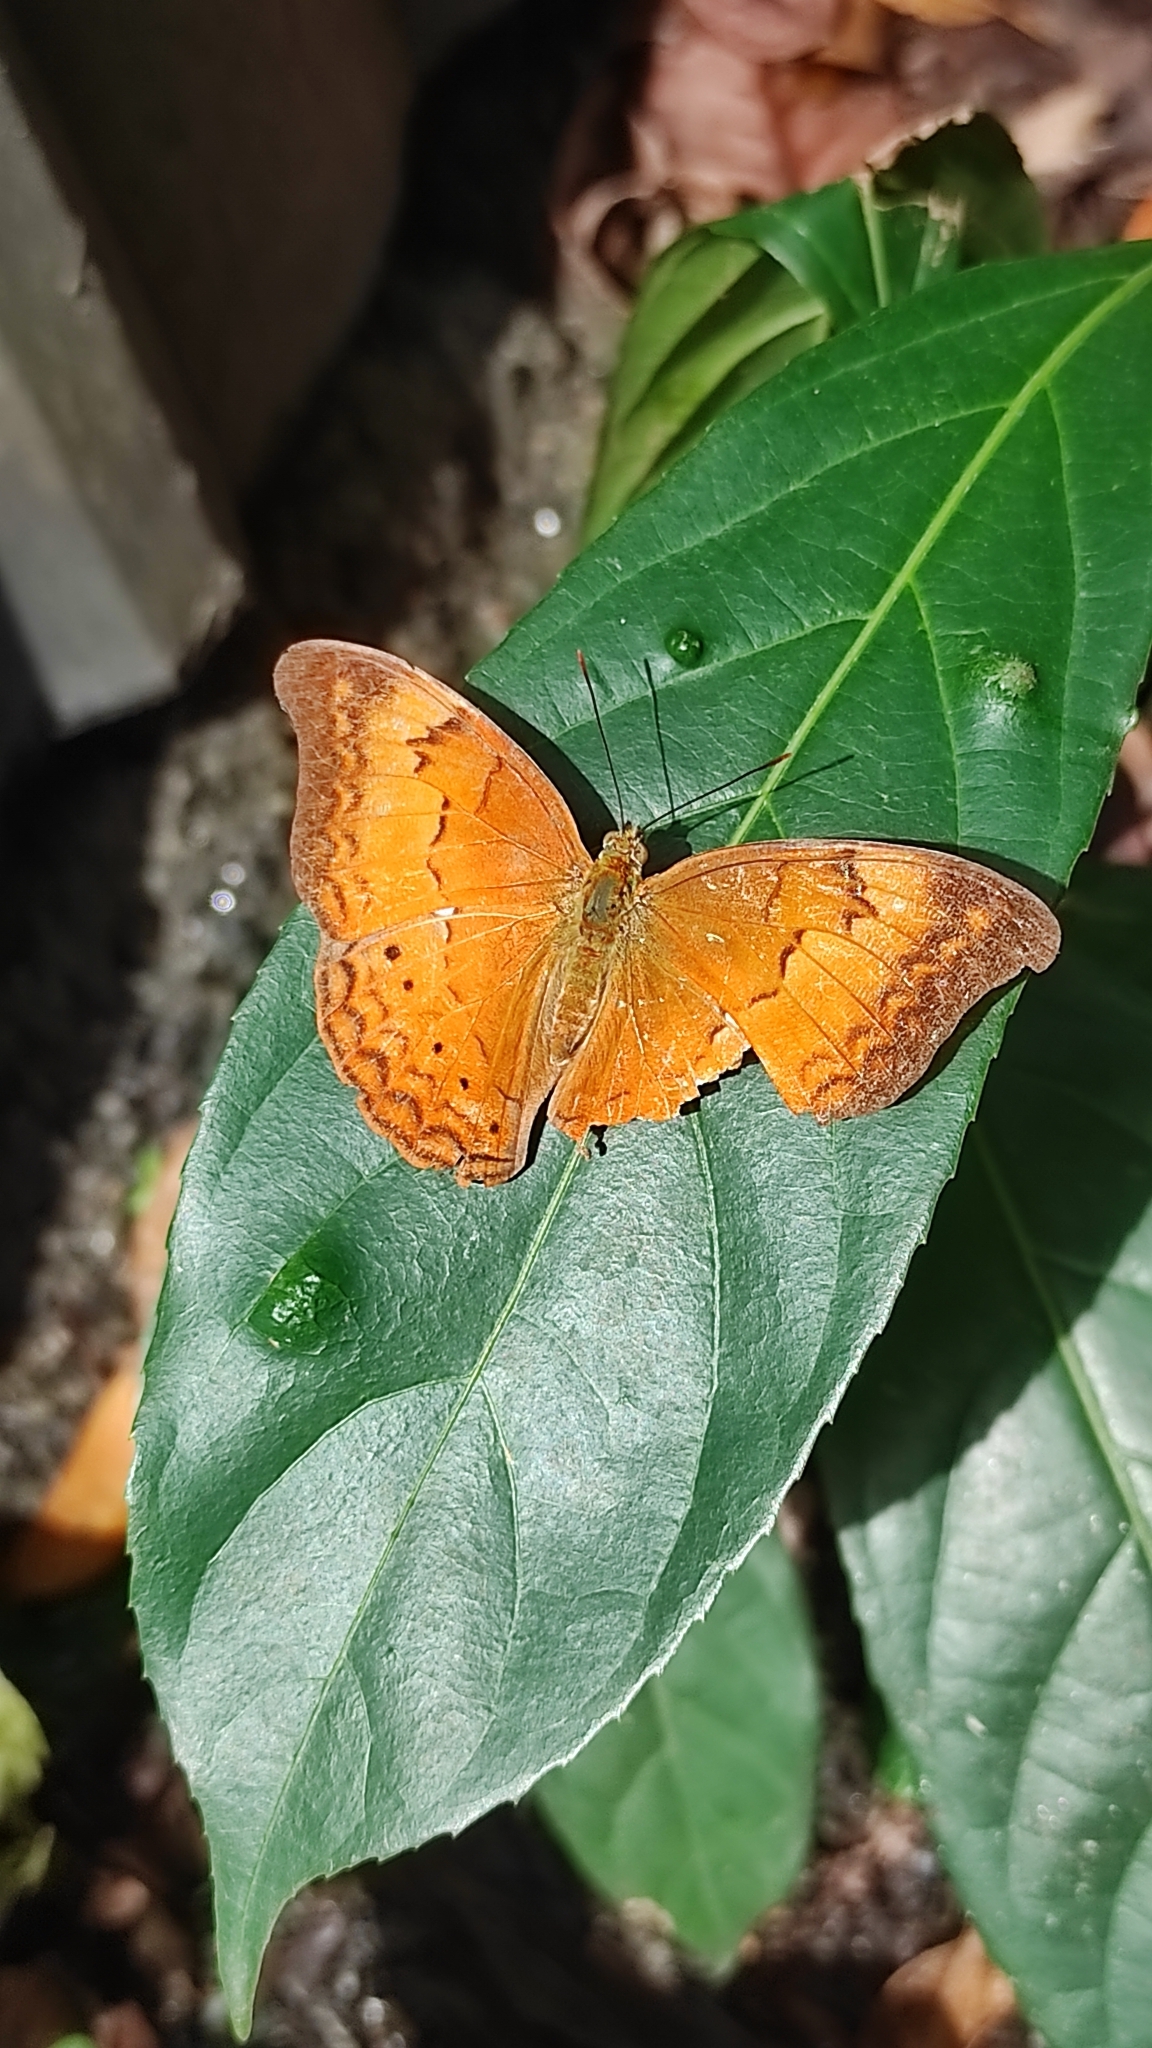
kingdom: Animalia
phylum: Arthropoda
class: Insecta
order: Lepidoptera
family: Nymphalidae
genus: Cirrochroa
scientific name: Cirrochroa thais
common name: Tamil yeoman
